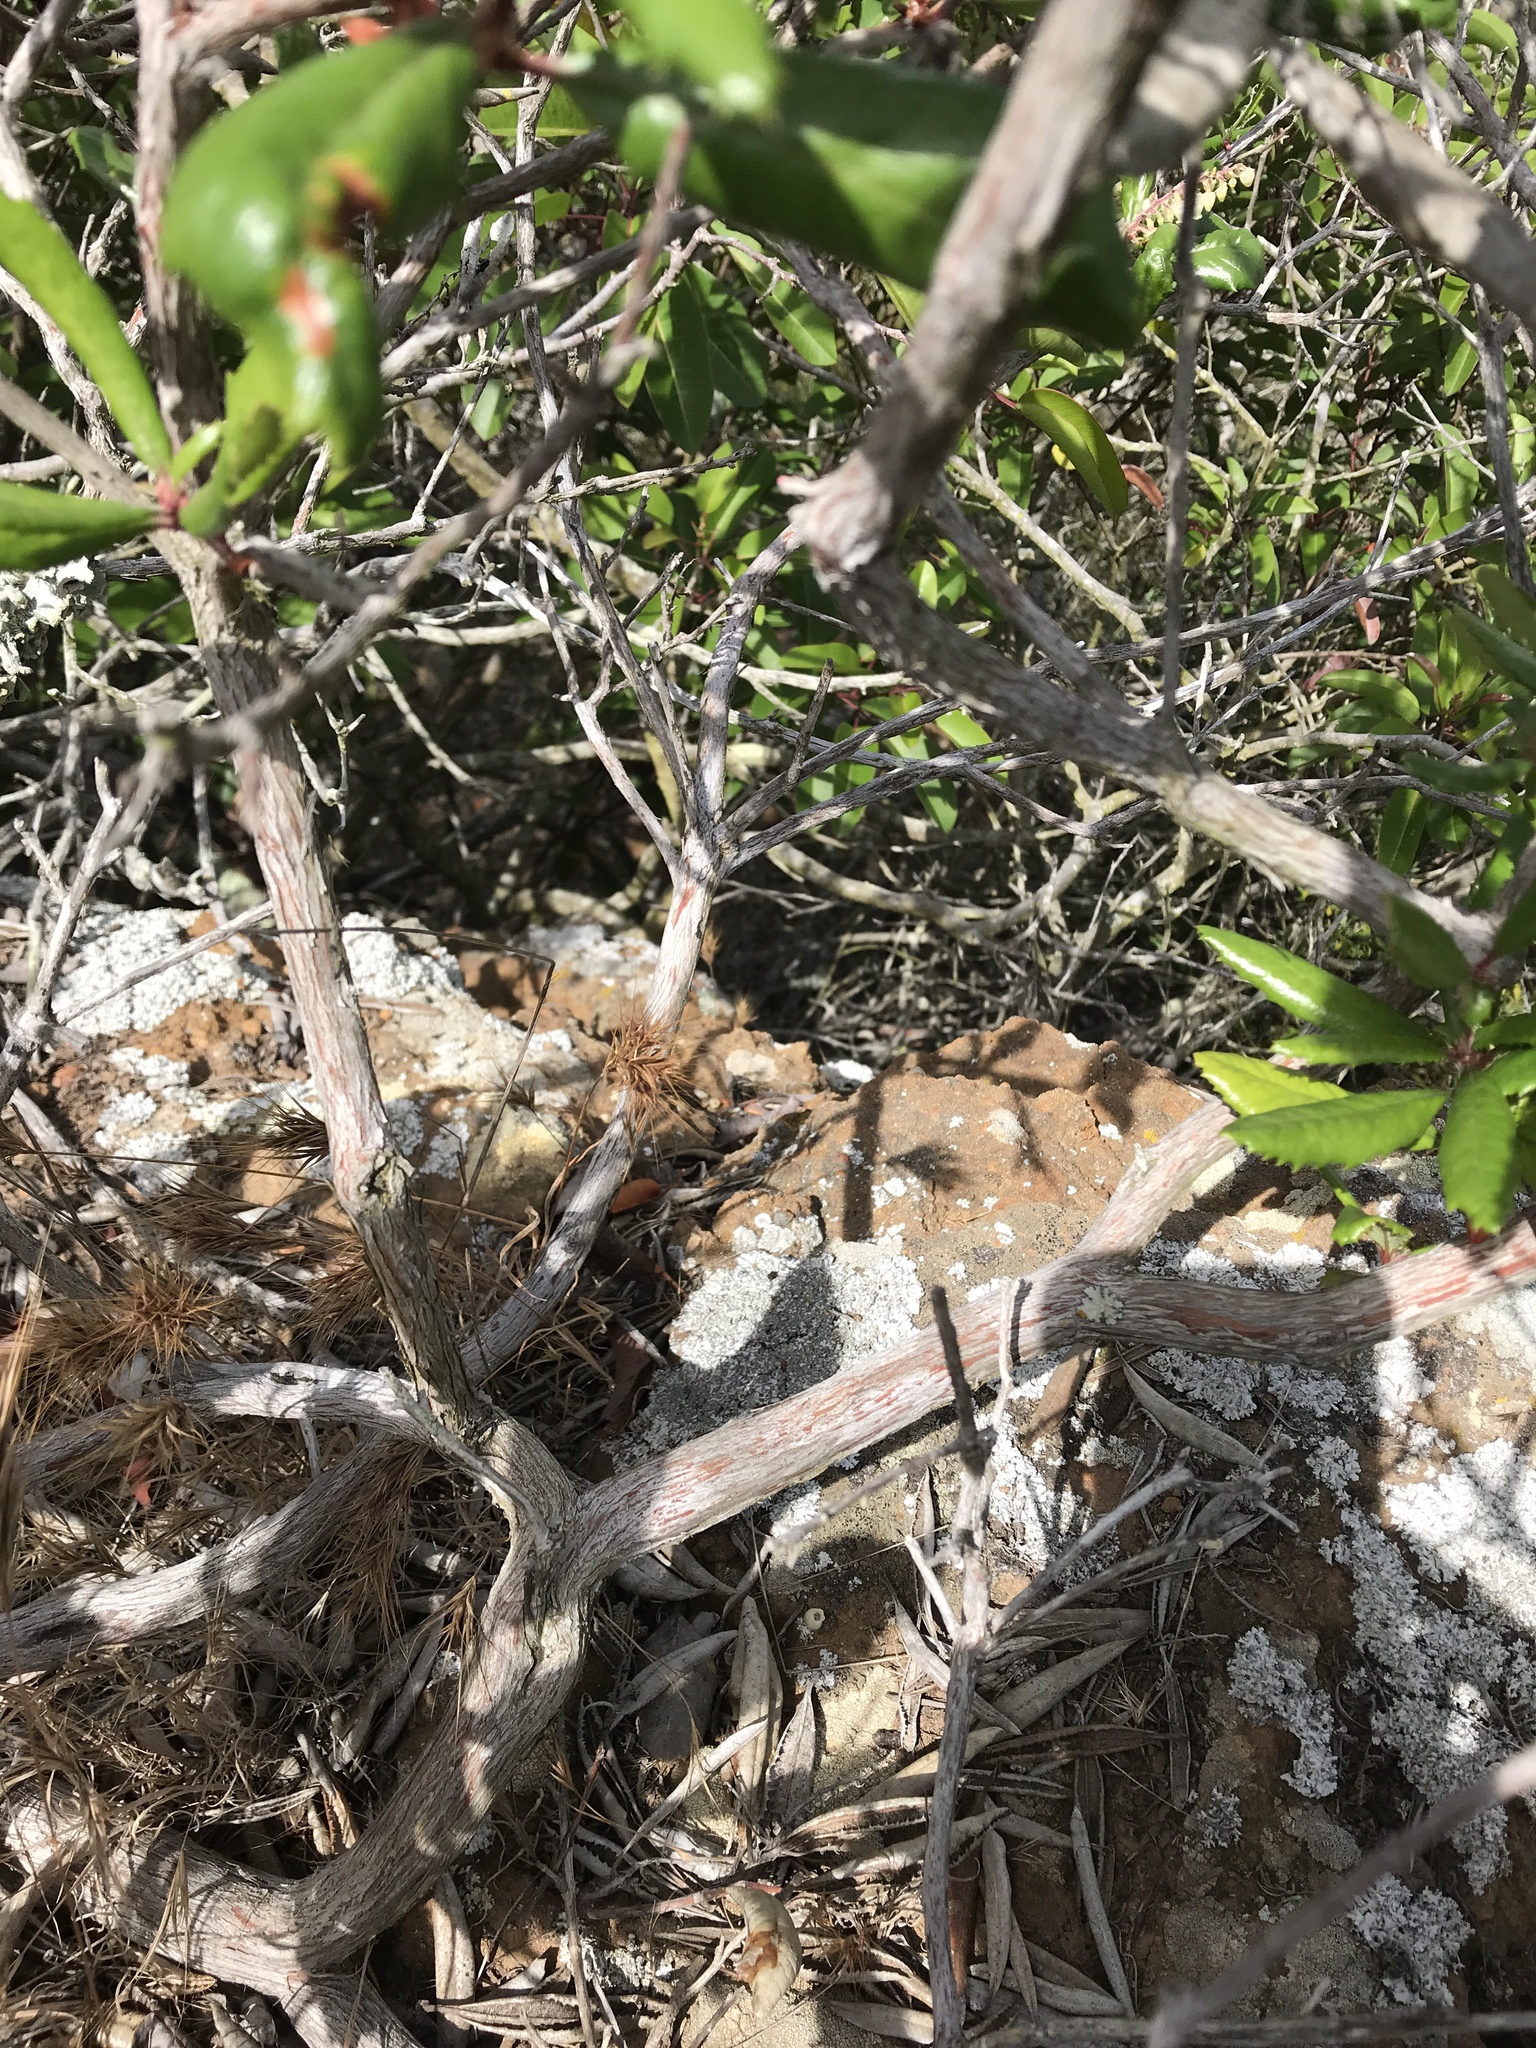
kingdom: Plantae
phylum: Tracheophyta
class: Magnoliopsida
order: Ericales
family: Ericaceae
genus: Comarostaphylis
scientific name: Comarostaphylis diversifolia
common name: Summer-holly
